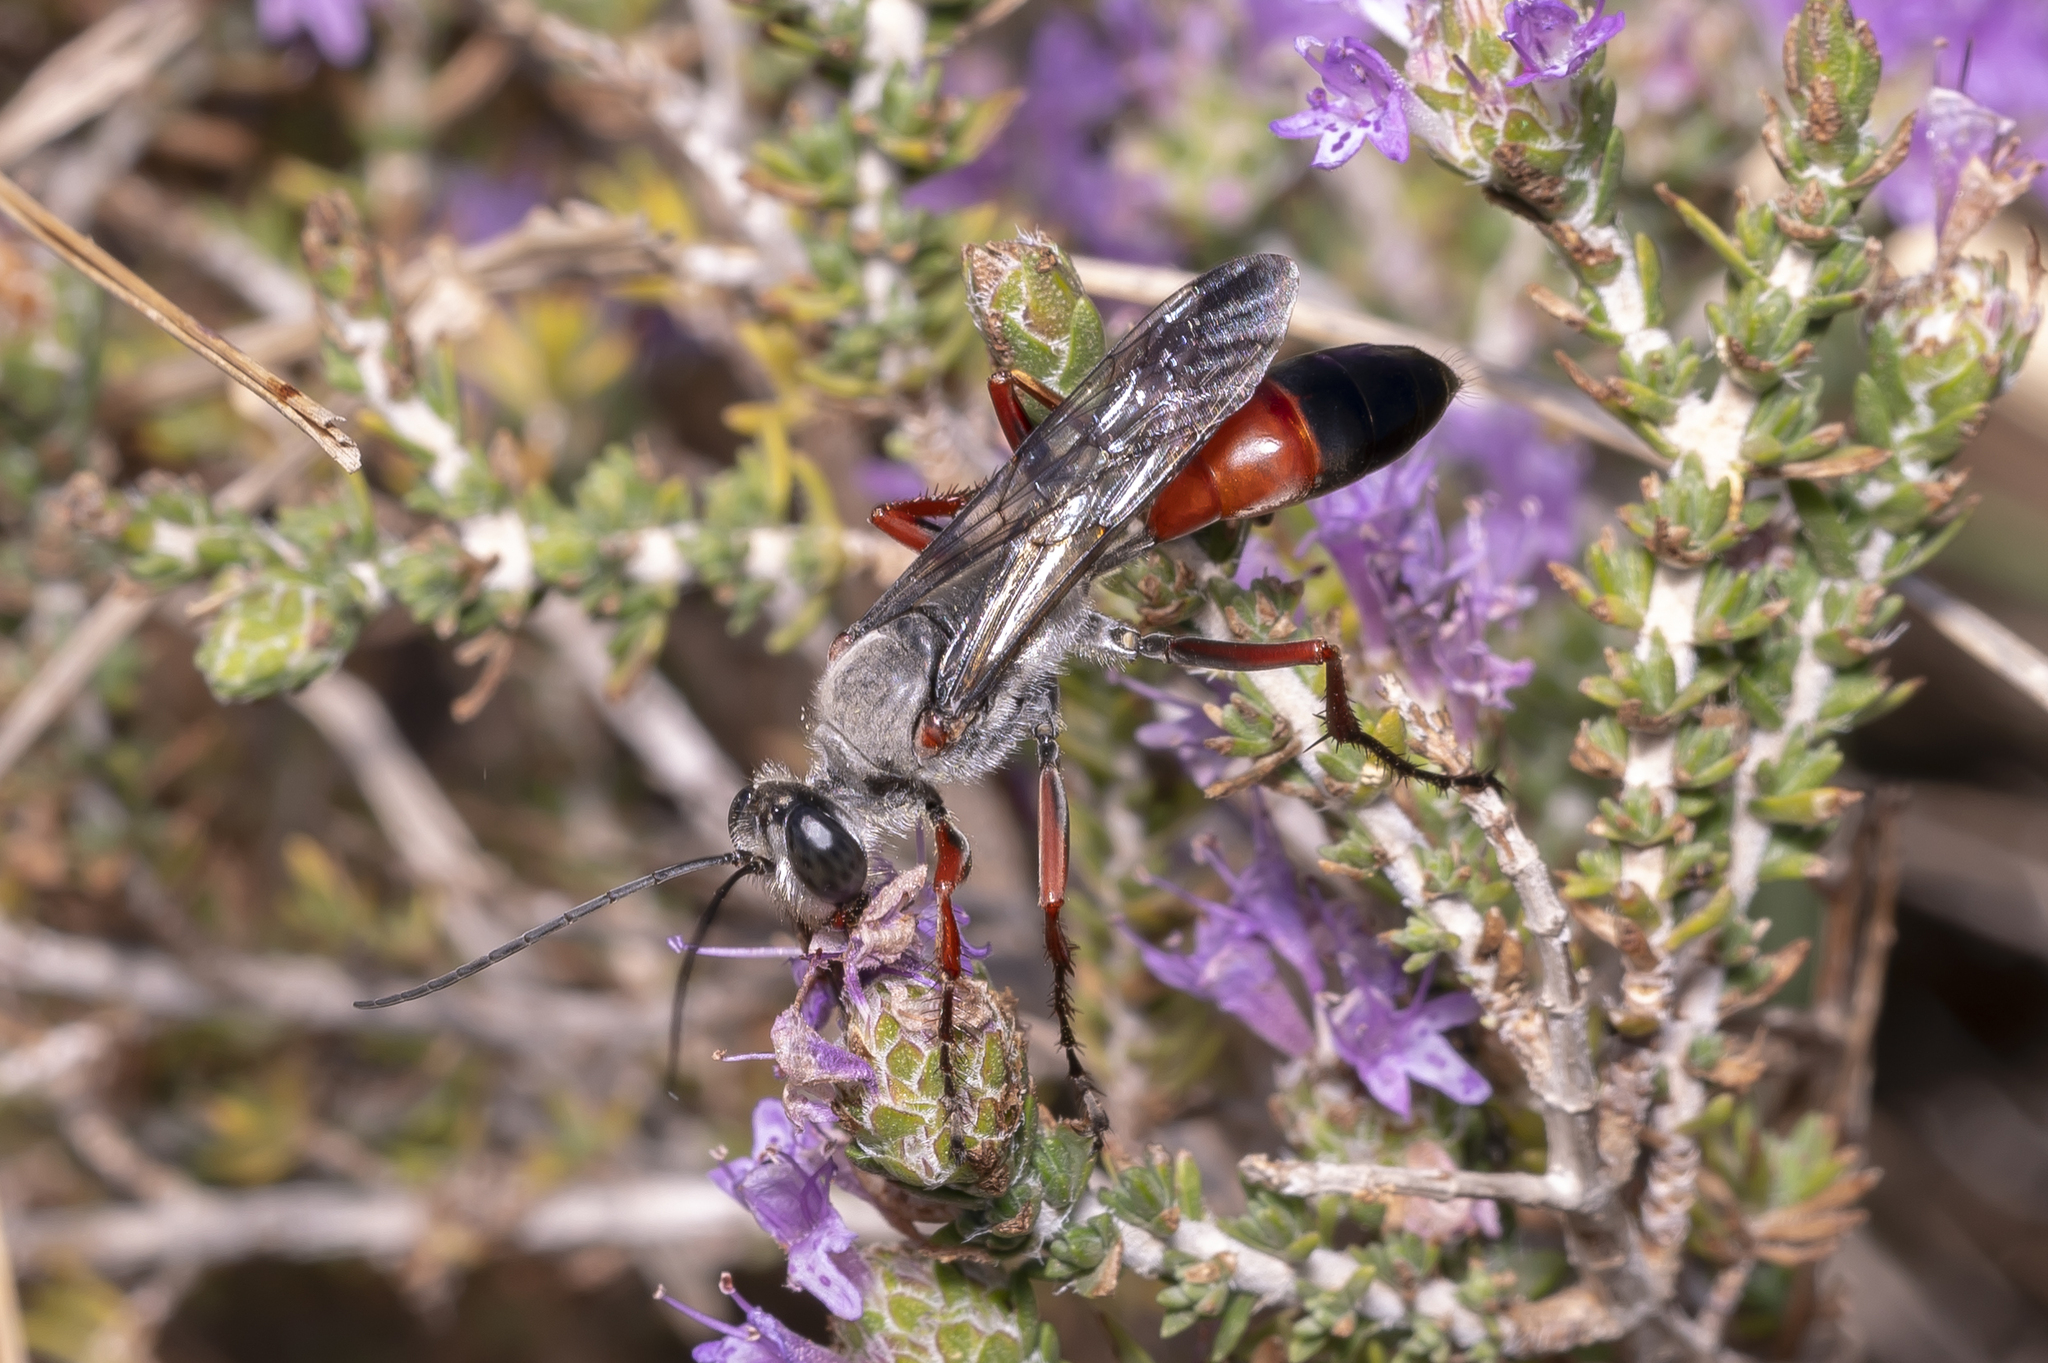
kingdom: Animalia
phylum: Arthropoda
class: Insecta
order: Hymenoptera
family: Sphecidae
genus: Sphex
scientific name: Sphex pruinosus
